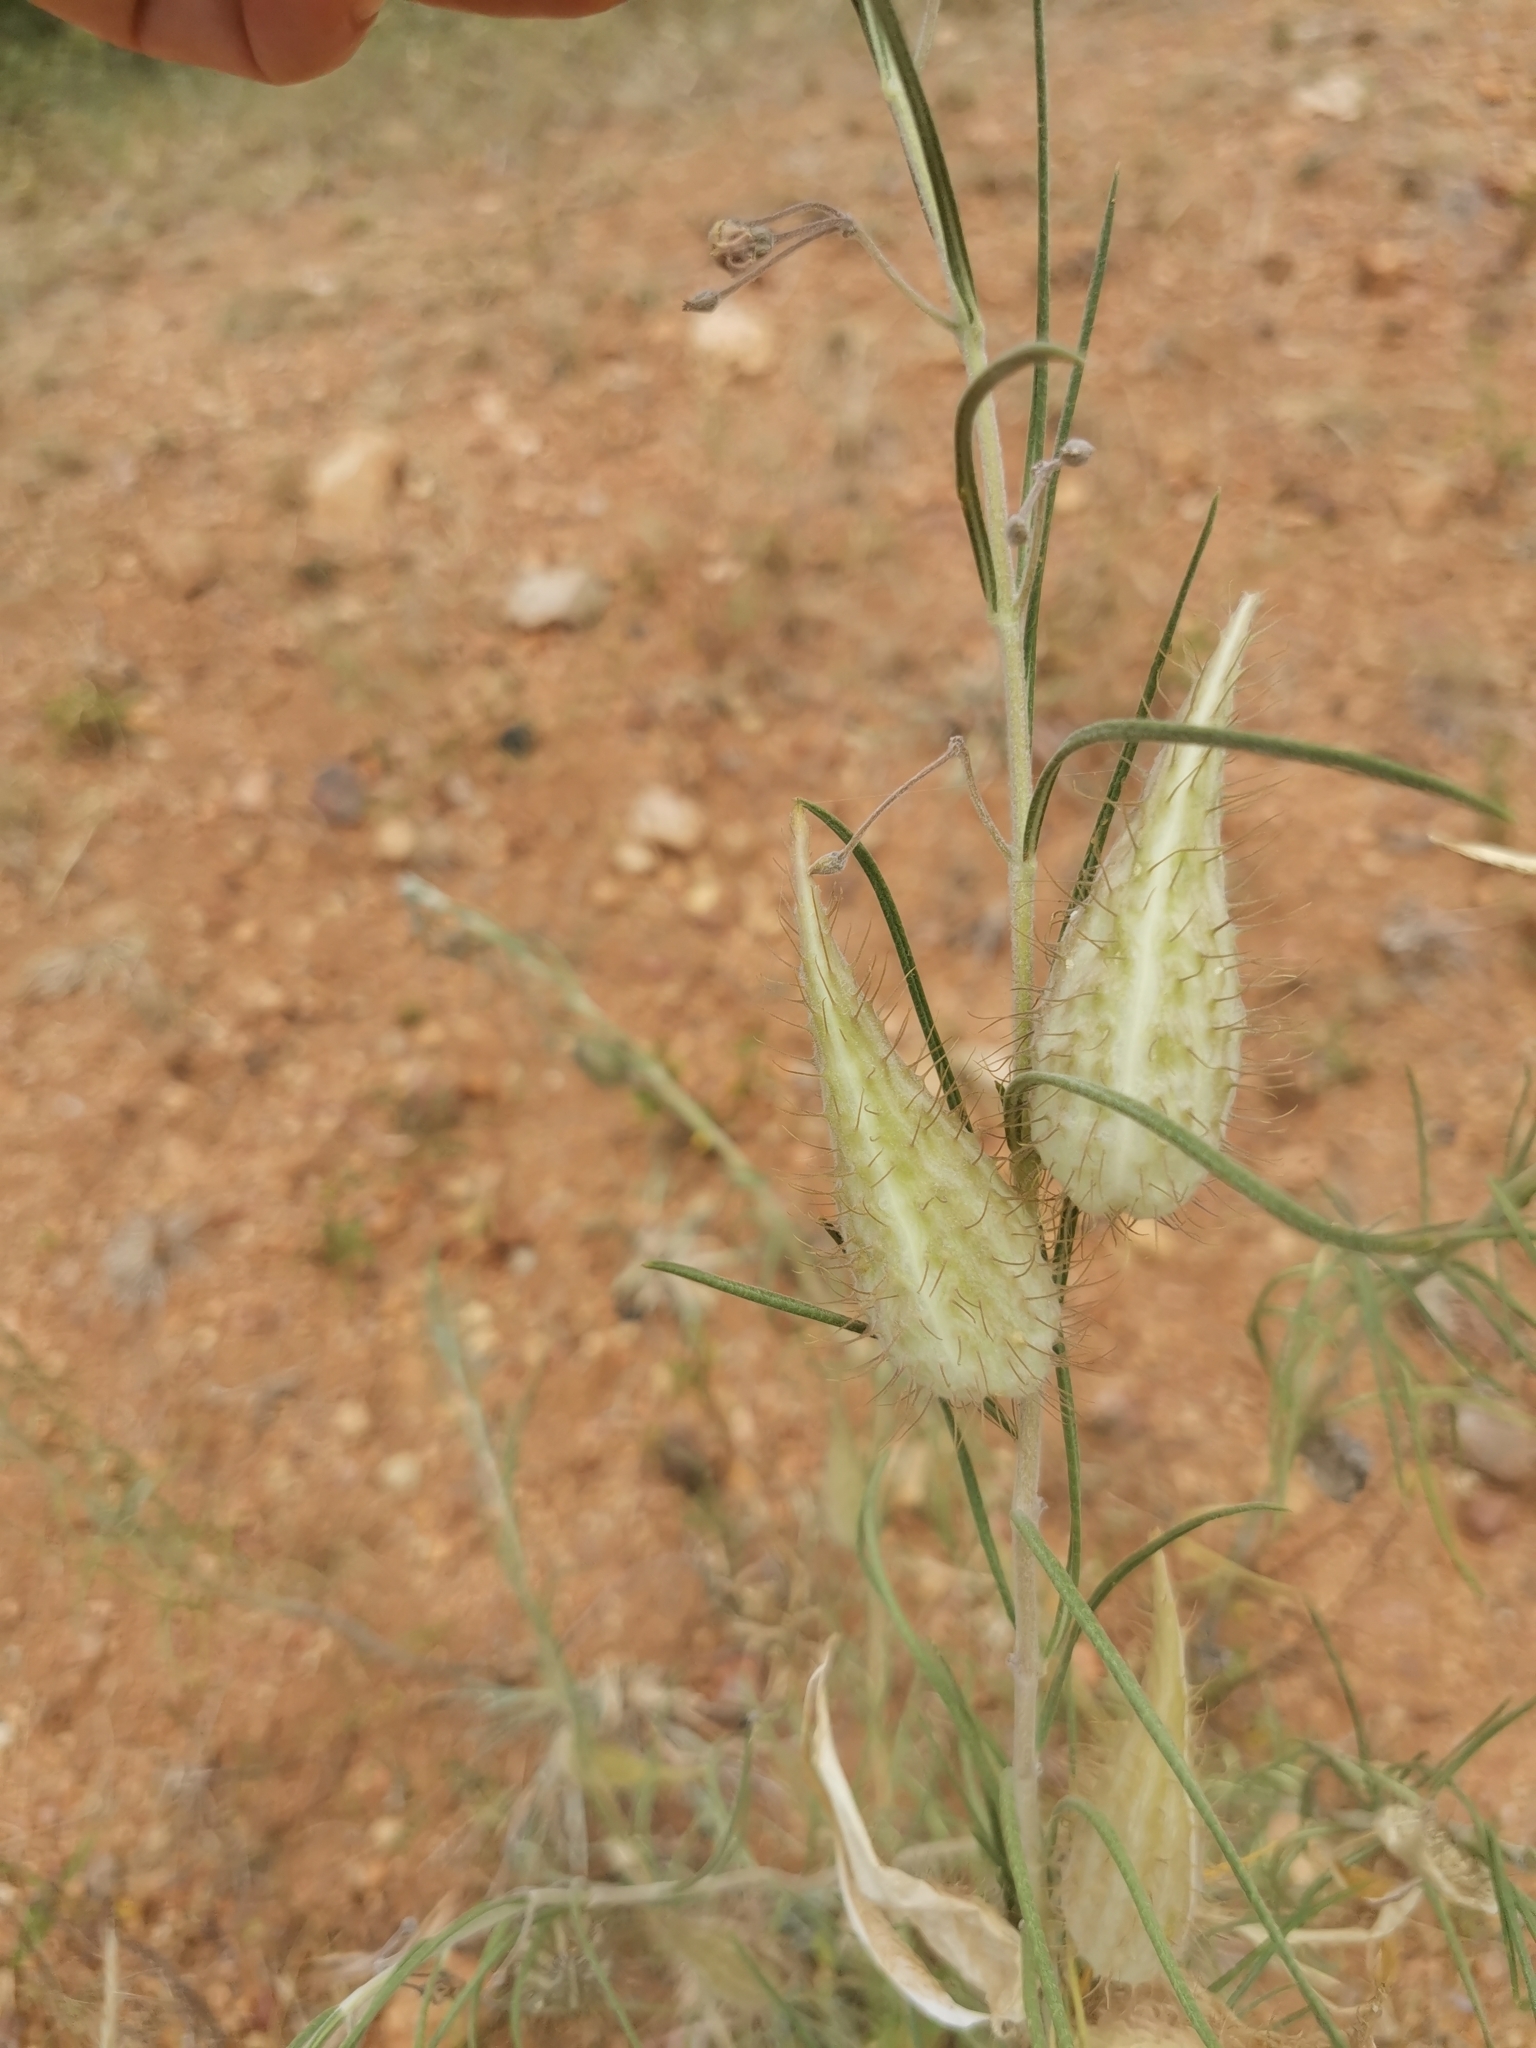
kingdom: Plantae
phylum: Tracheophyta
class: Magnoliopsida
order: Gentianales
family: Apocynaceae
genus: Gomphocarpus
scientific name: Gomphocarpus fruticosus
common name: Milkweed
